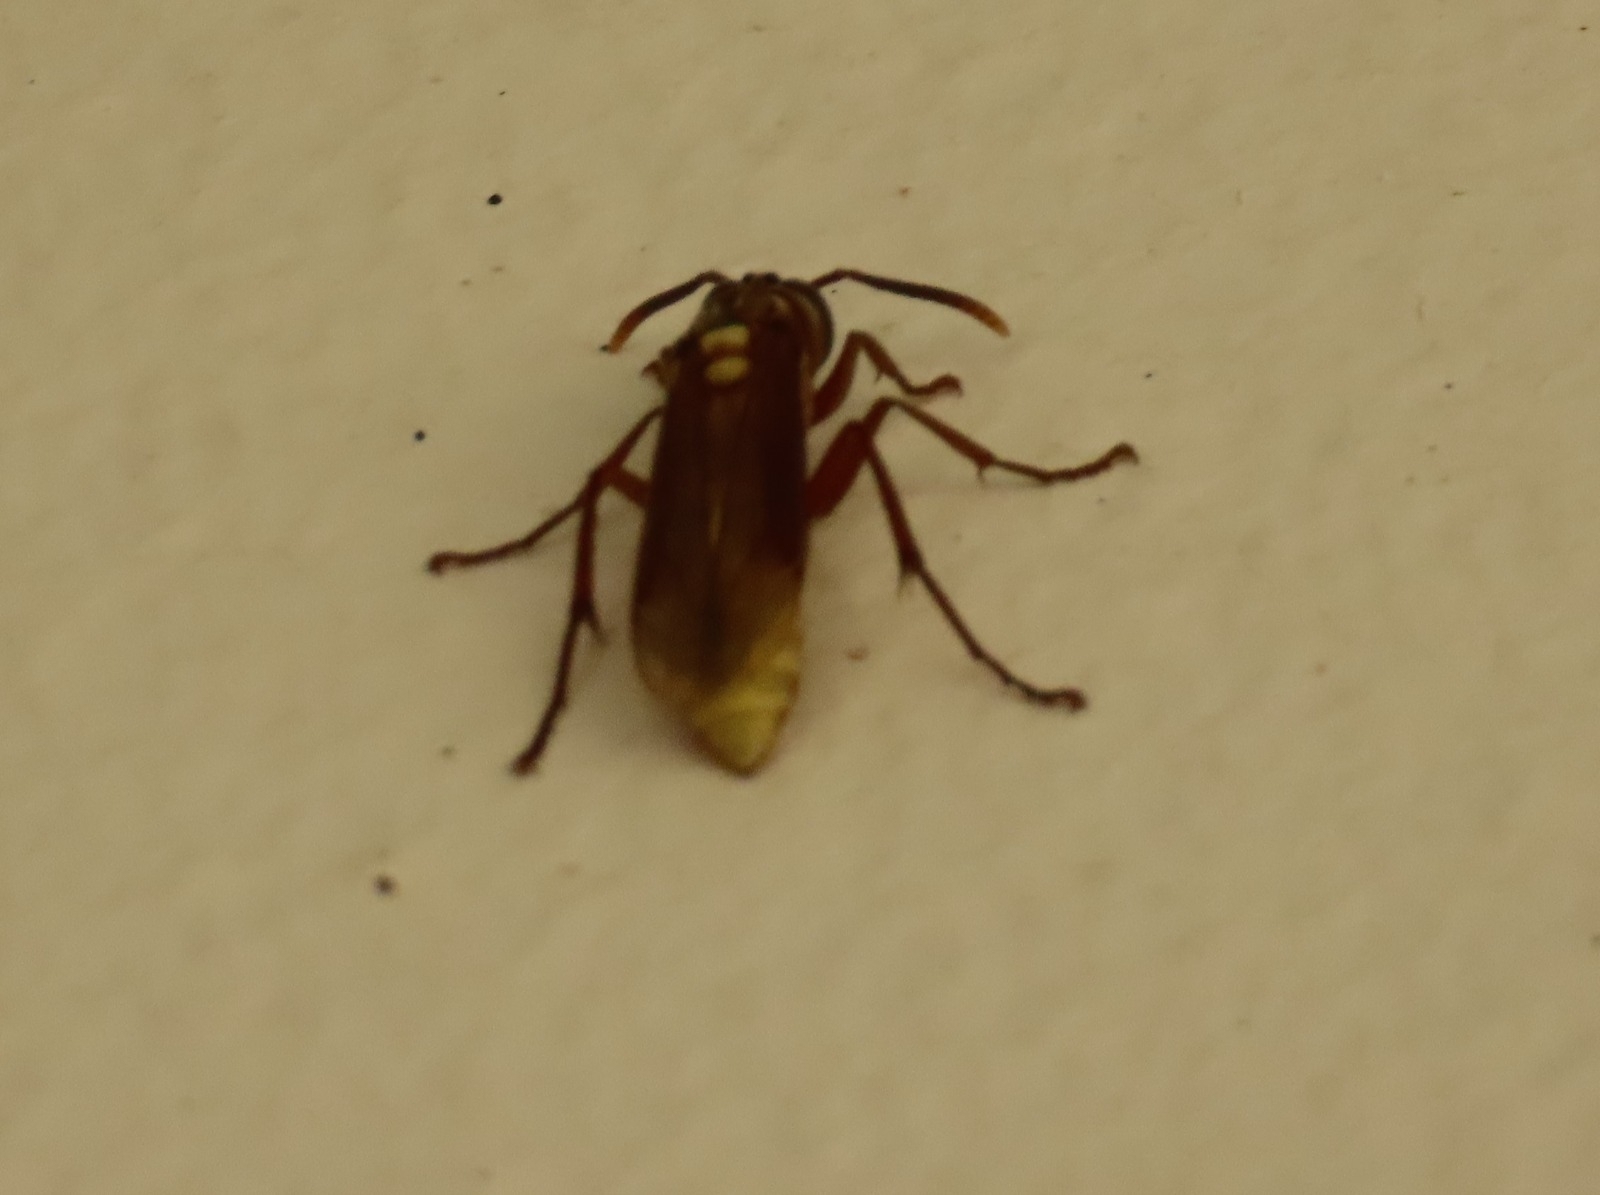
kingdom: Animalia
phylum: Arthropoda
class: Insecta
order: Hymenoptera
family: Vespidae
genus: Apoica
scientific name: Apoica pallens
